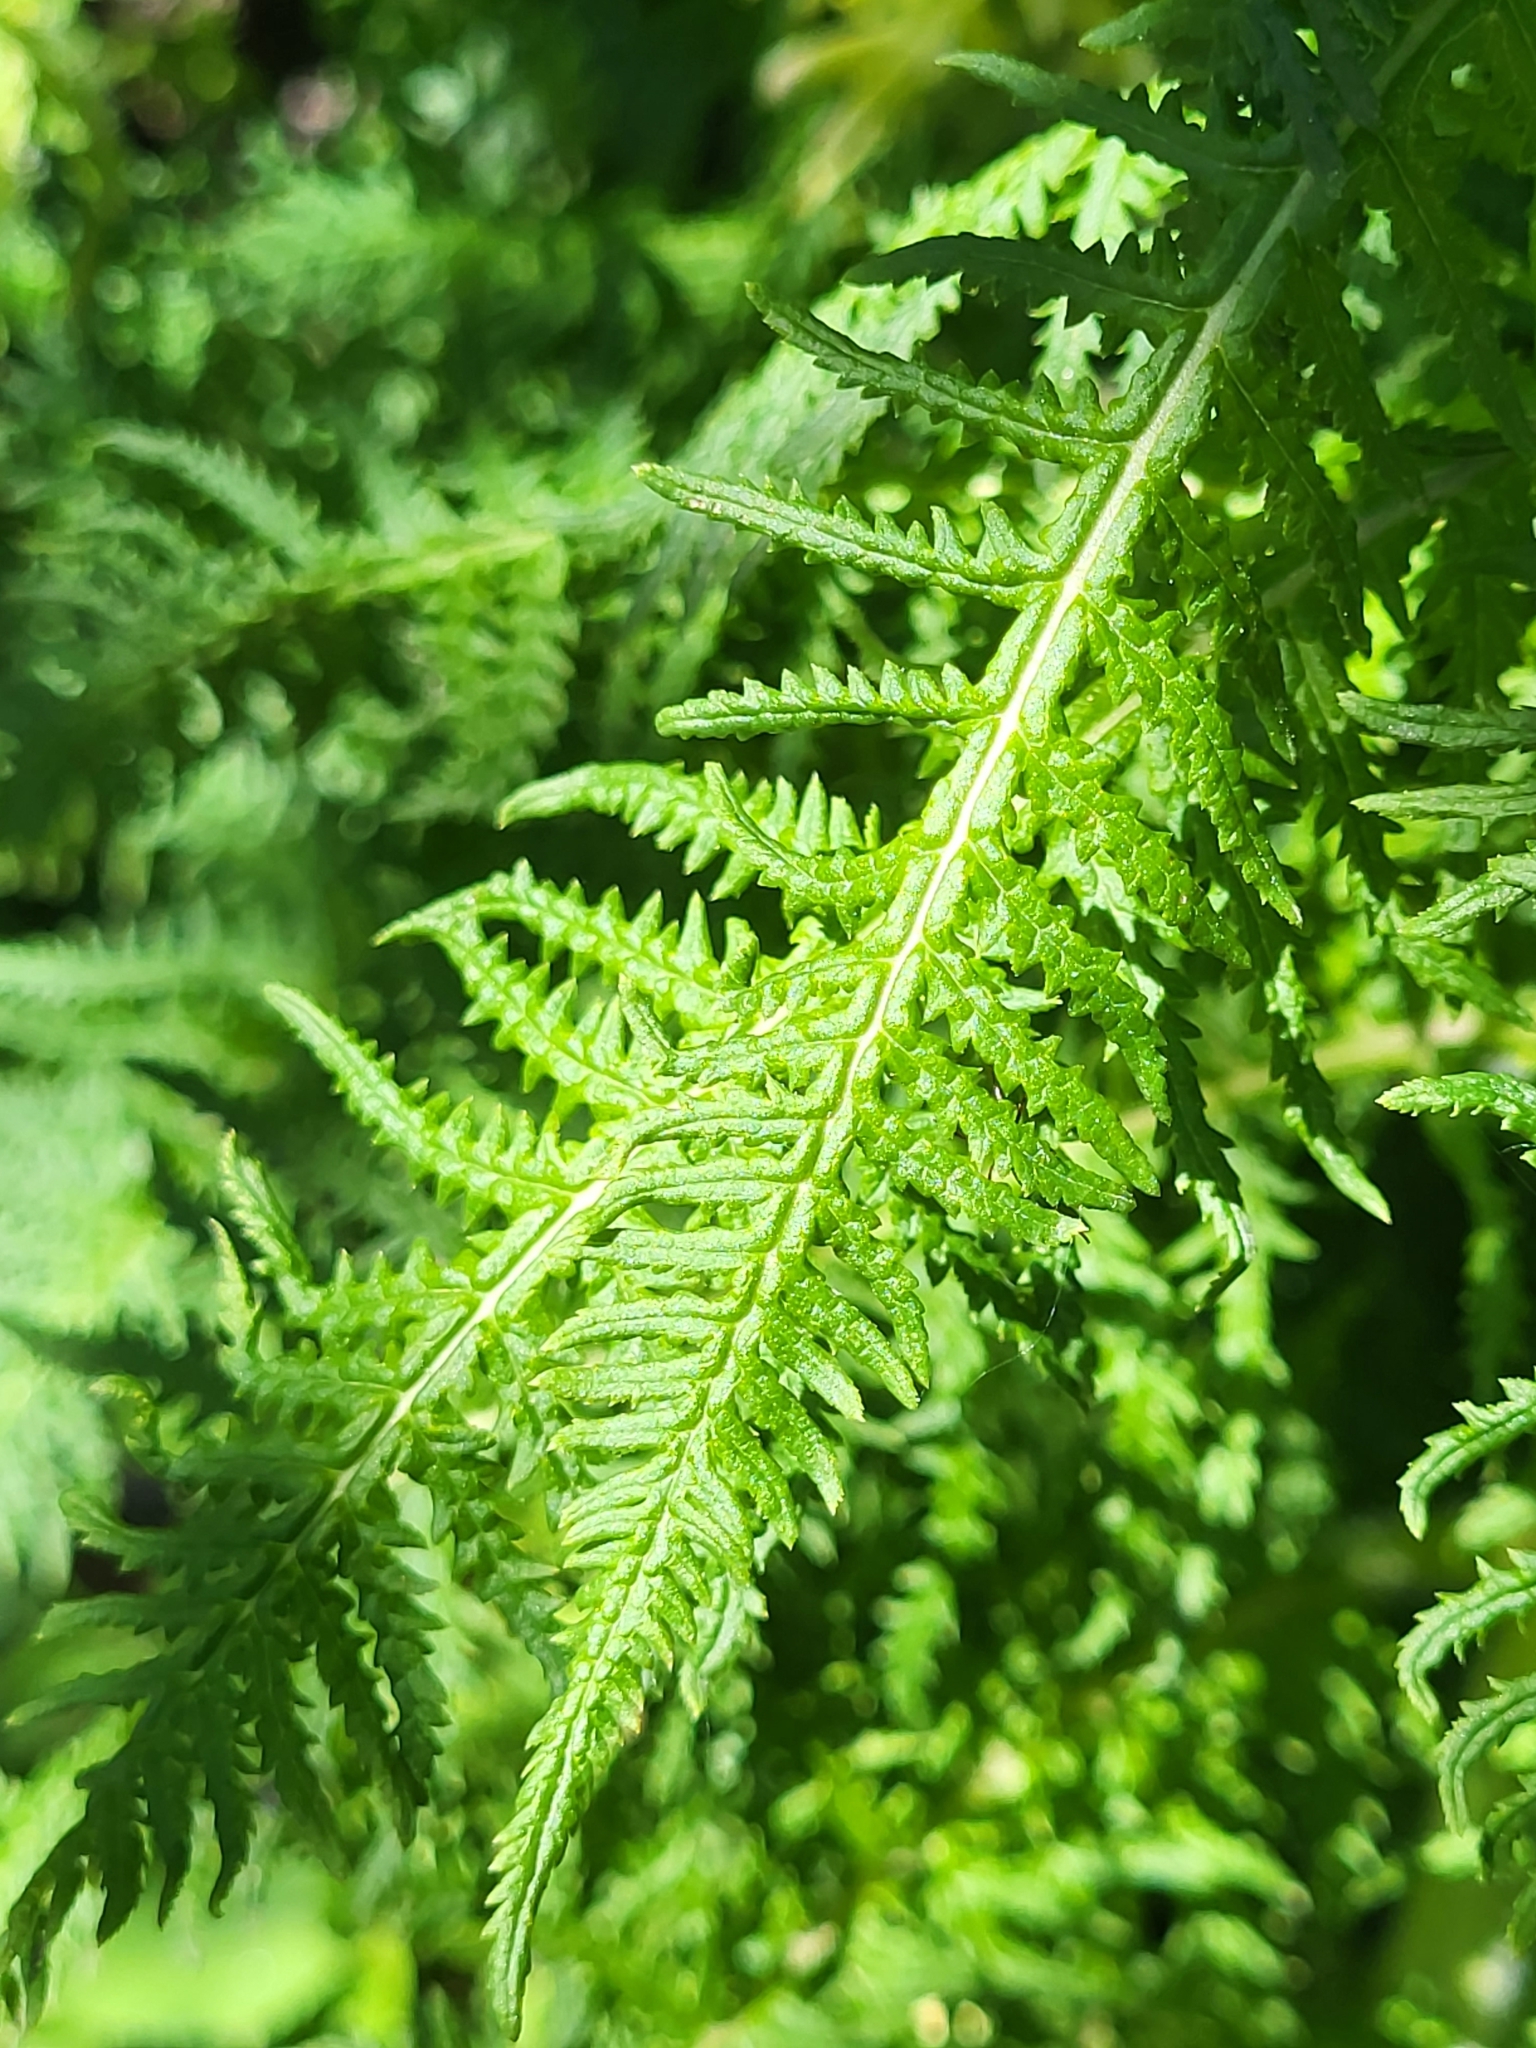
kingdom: Plantae
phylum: Tracheophyta
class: Magnoliopsida
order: Lamiales
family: Orobanchaceae
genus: Pedicularis
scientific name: Pedicularis condensata
